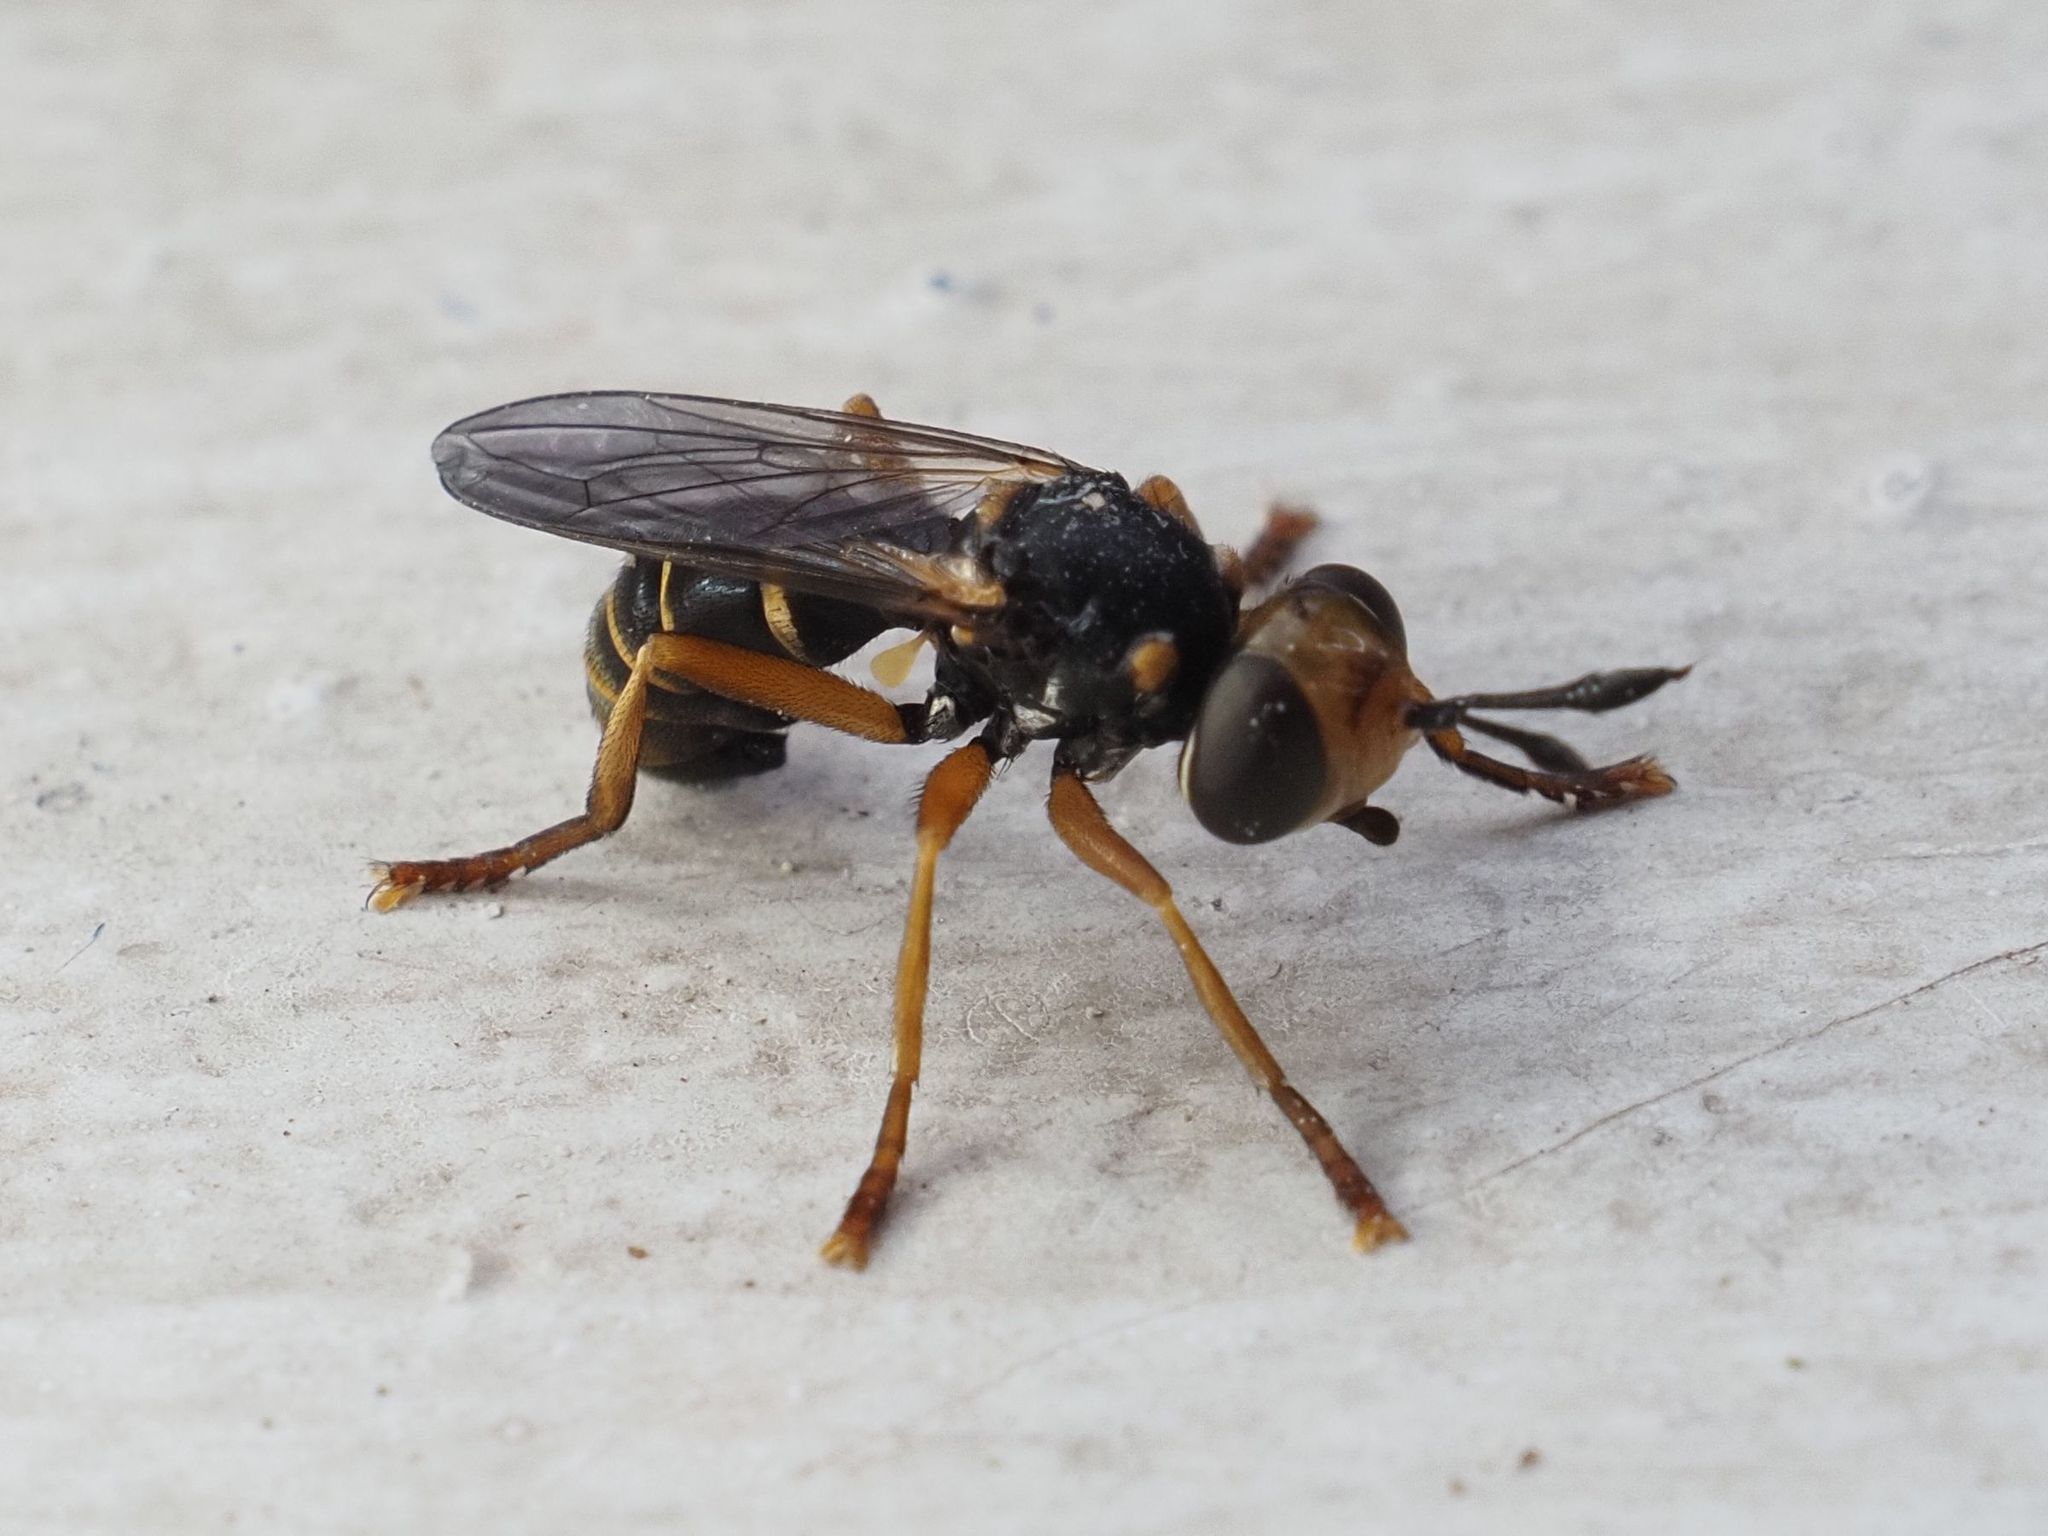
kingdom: Animalia
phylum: Arthropoda
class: Insecta
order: Diptera
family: Conopidae
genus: Abrachyglossum
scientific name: Abrachyglossum capitatum
